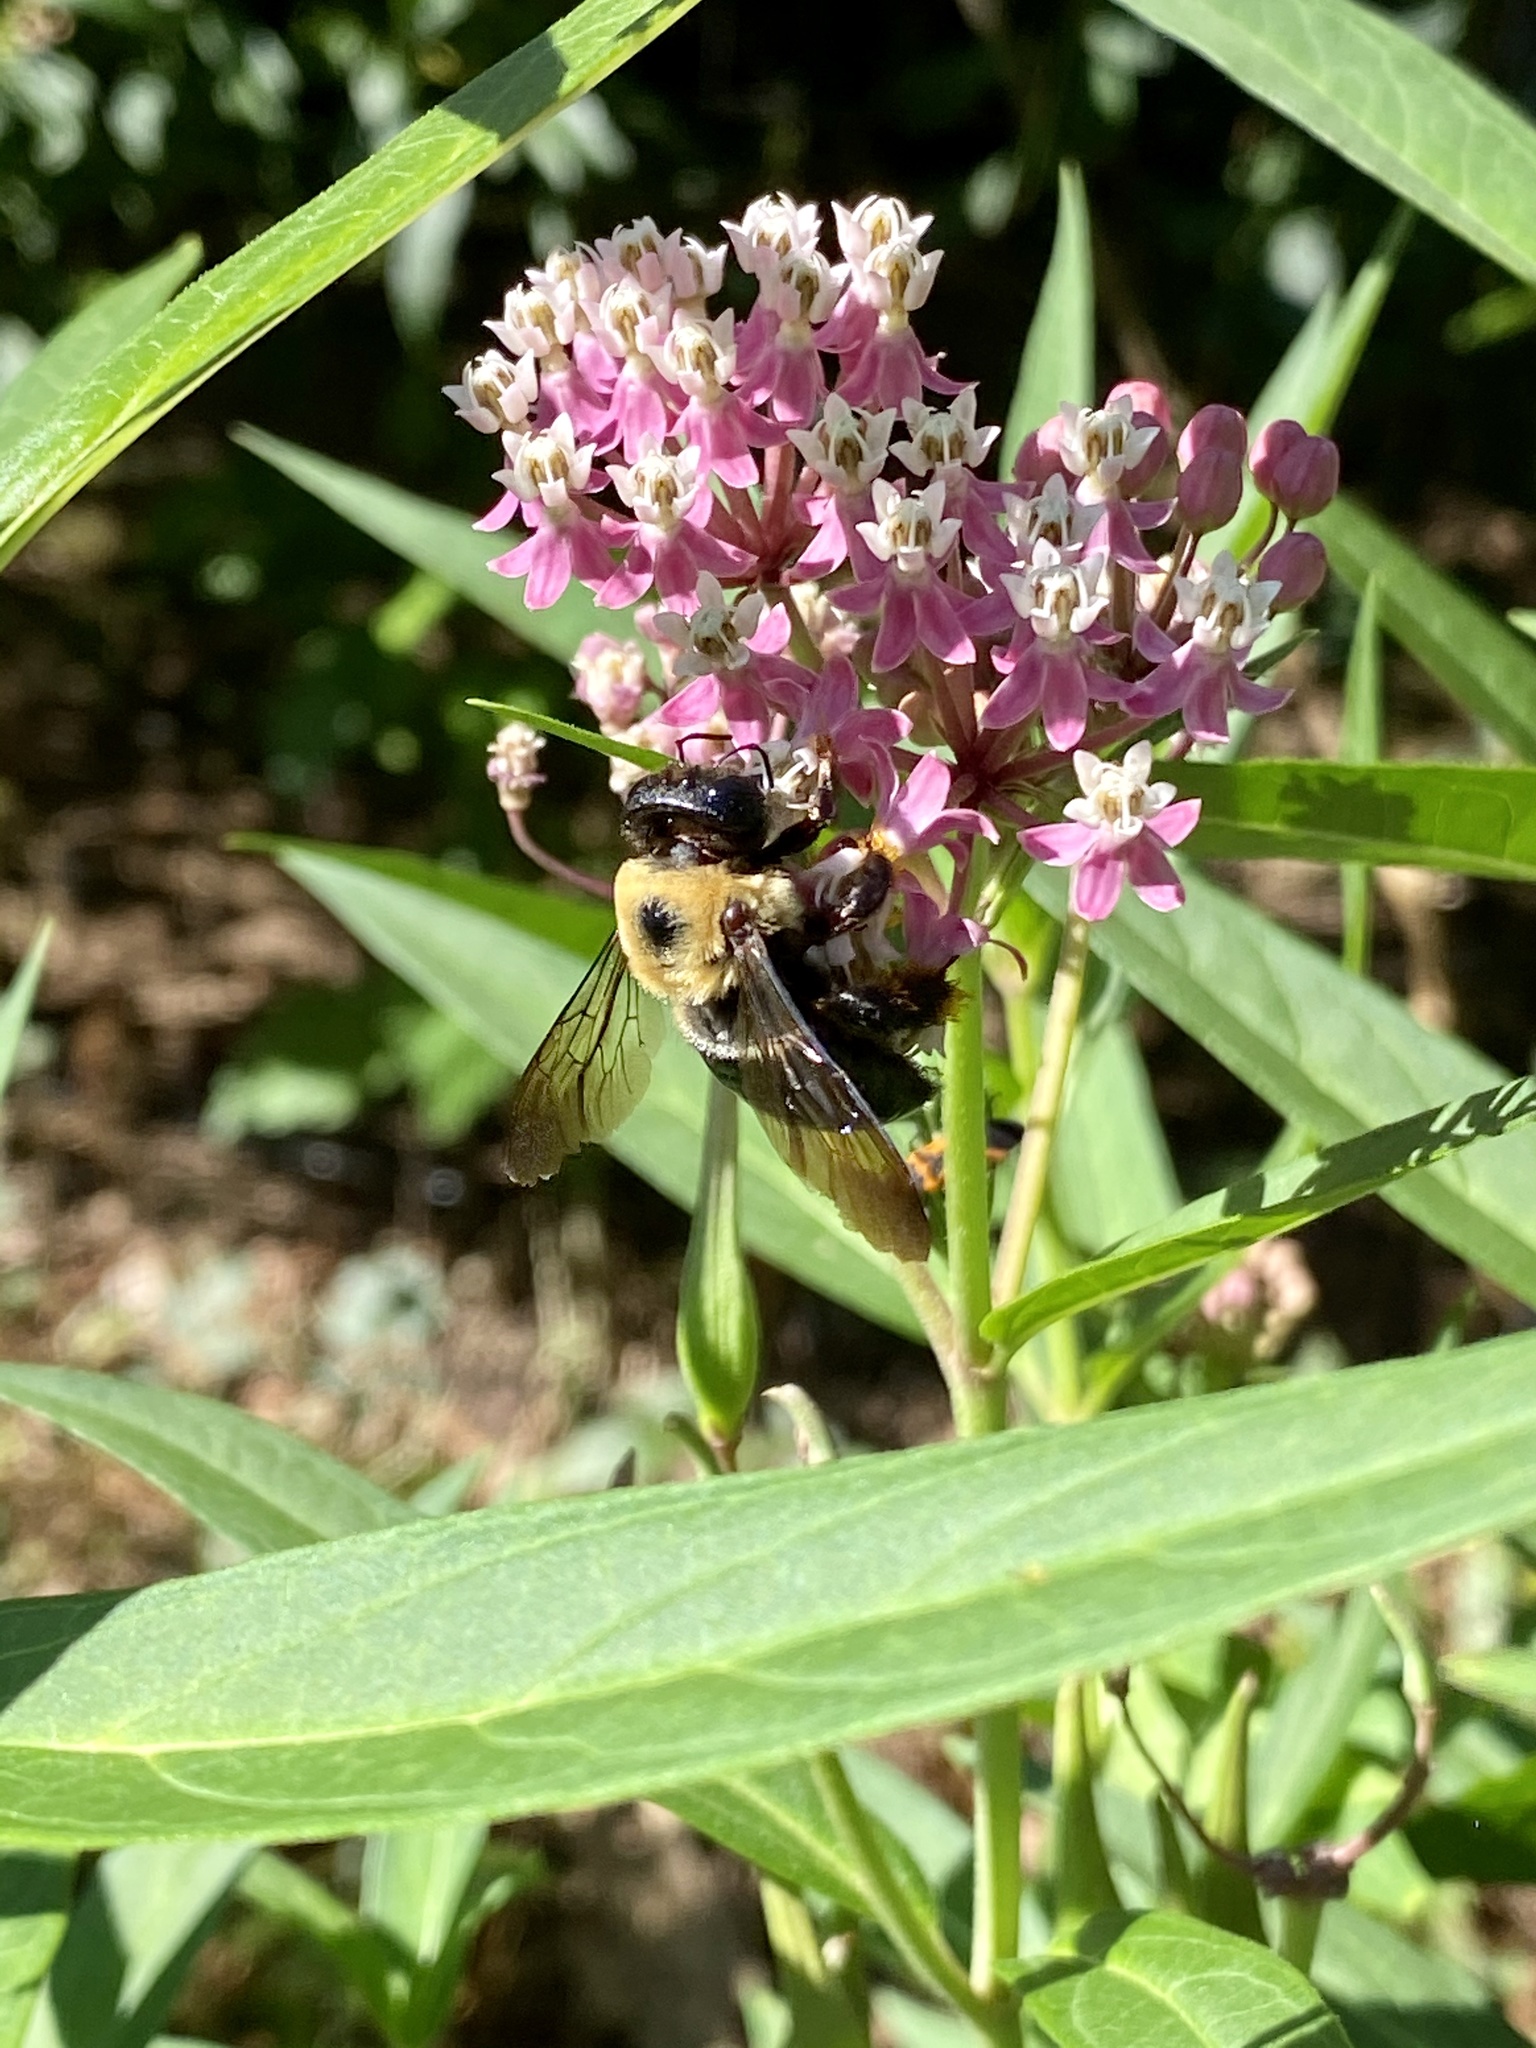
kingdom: Animalia
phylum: Arthropoda
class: Insecta
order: Hymenoptera
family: Apidae
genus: Xylocopa
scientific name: Xylocopa virginica
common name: Carpenter bee
